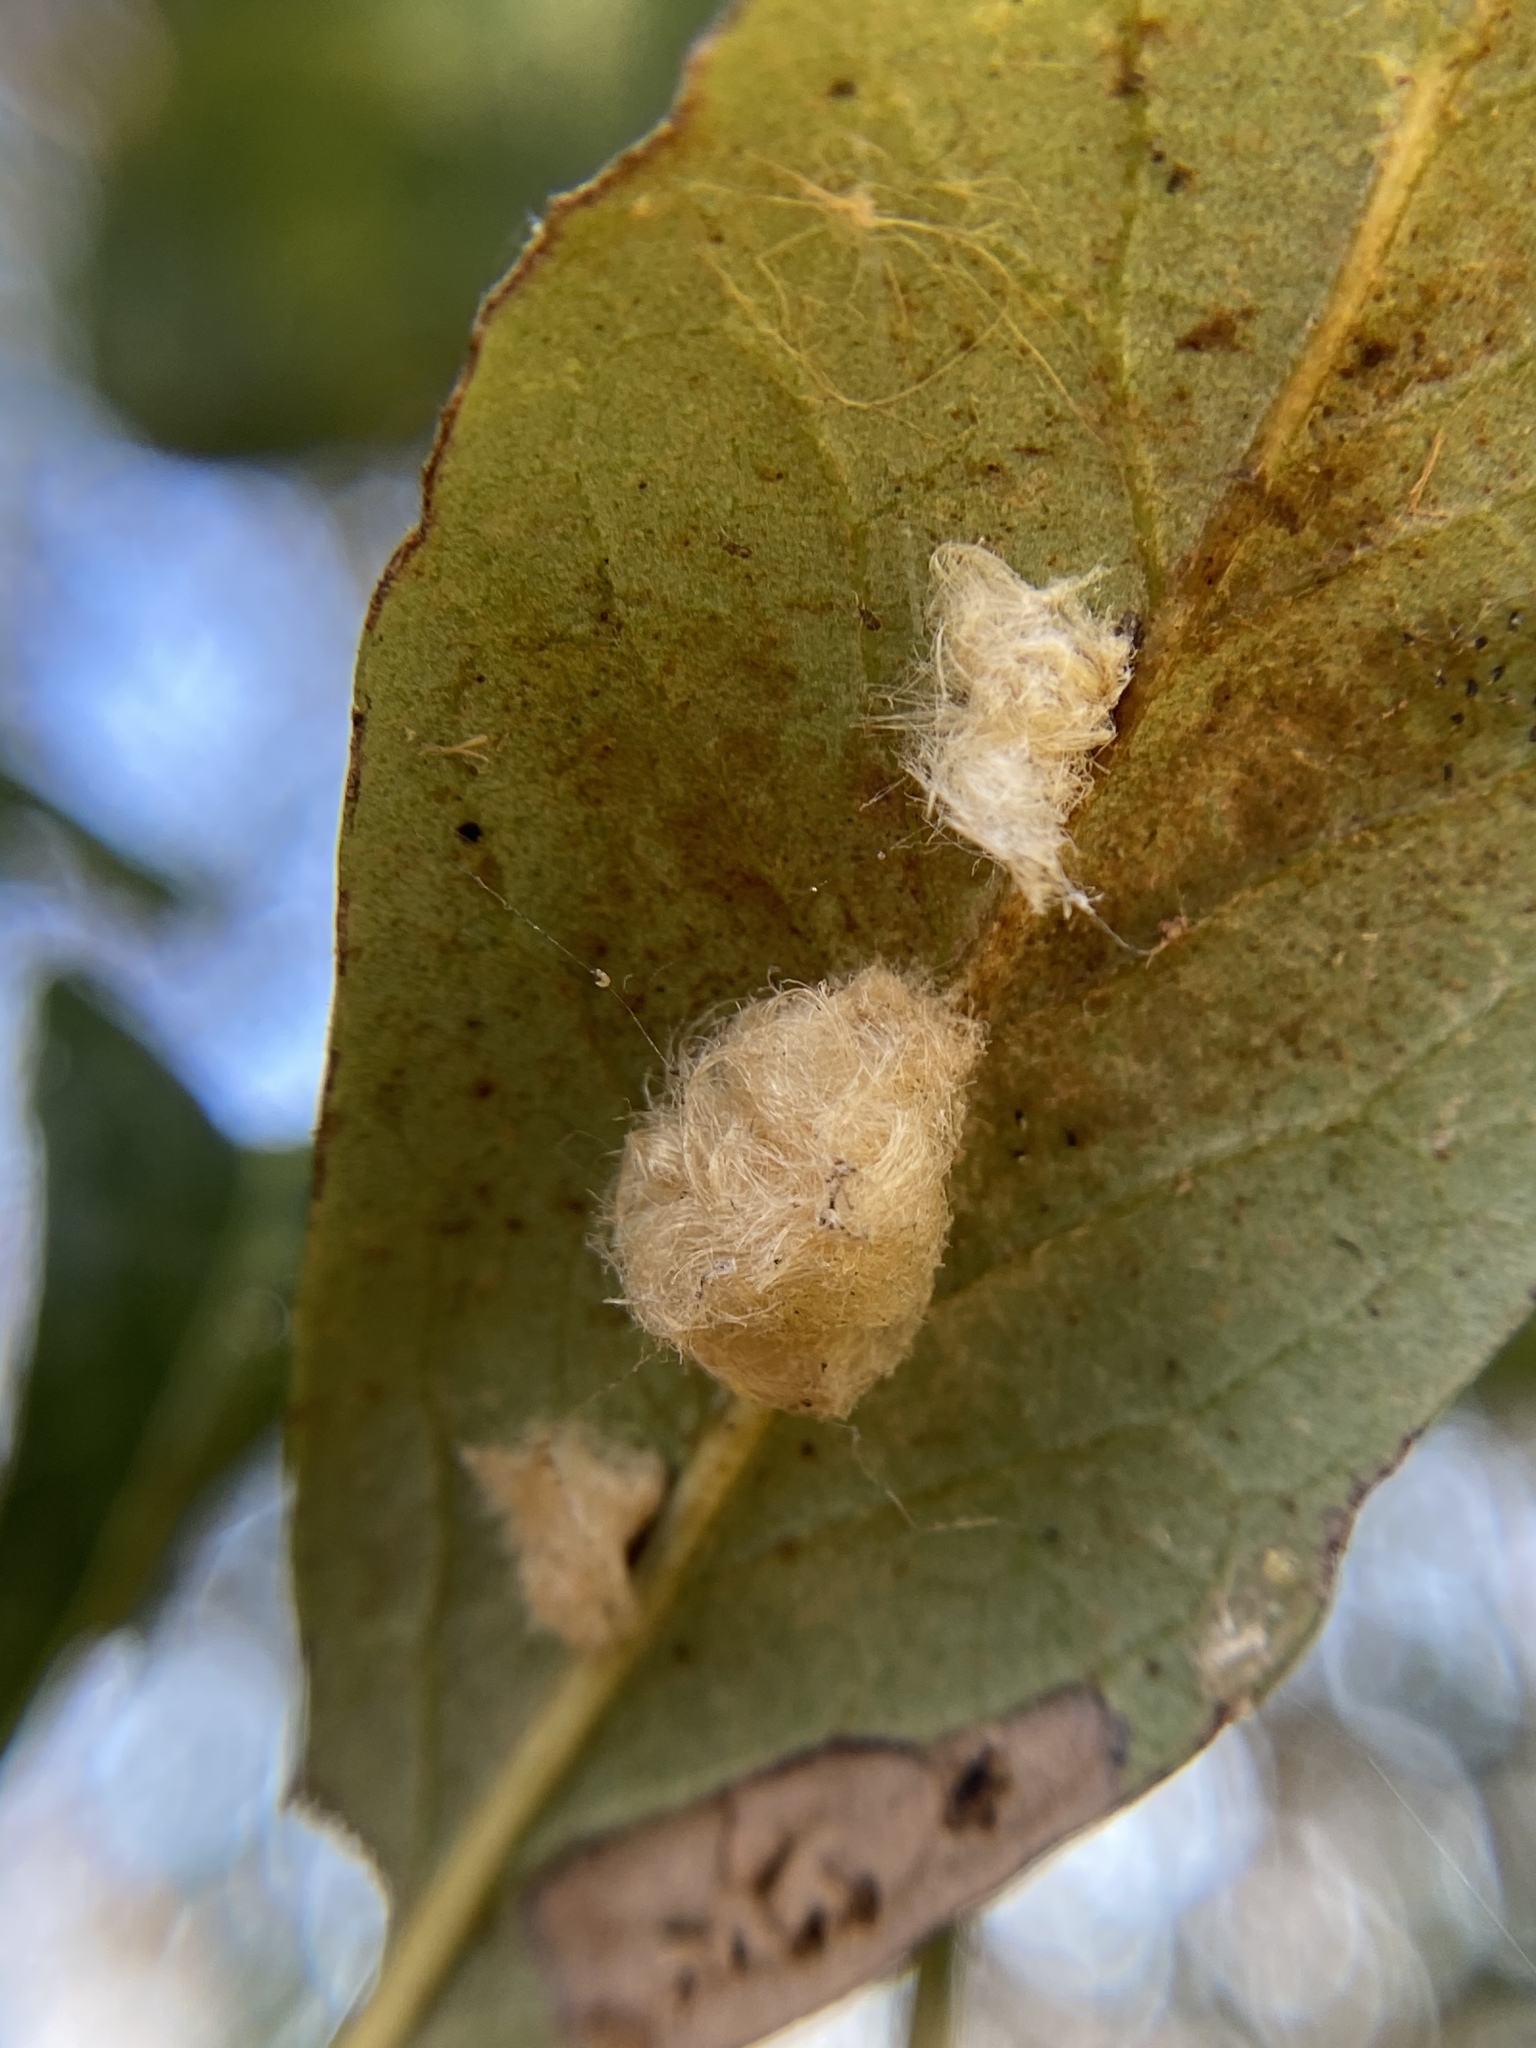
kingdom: Animalia
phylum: Arthropoda
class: Insecta
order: Hymenoptera
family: Cynipidae
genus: Andricus
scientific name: Andricus Druon quercuslanigerum
